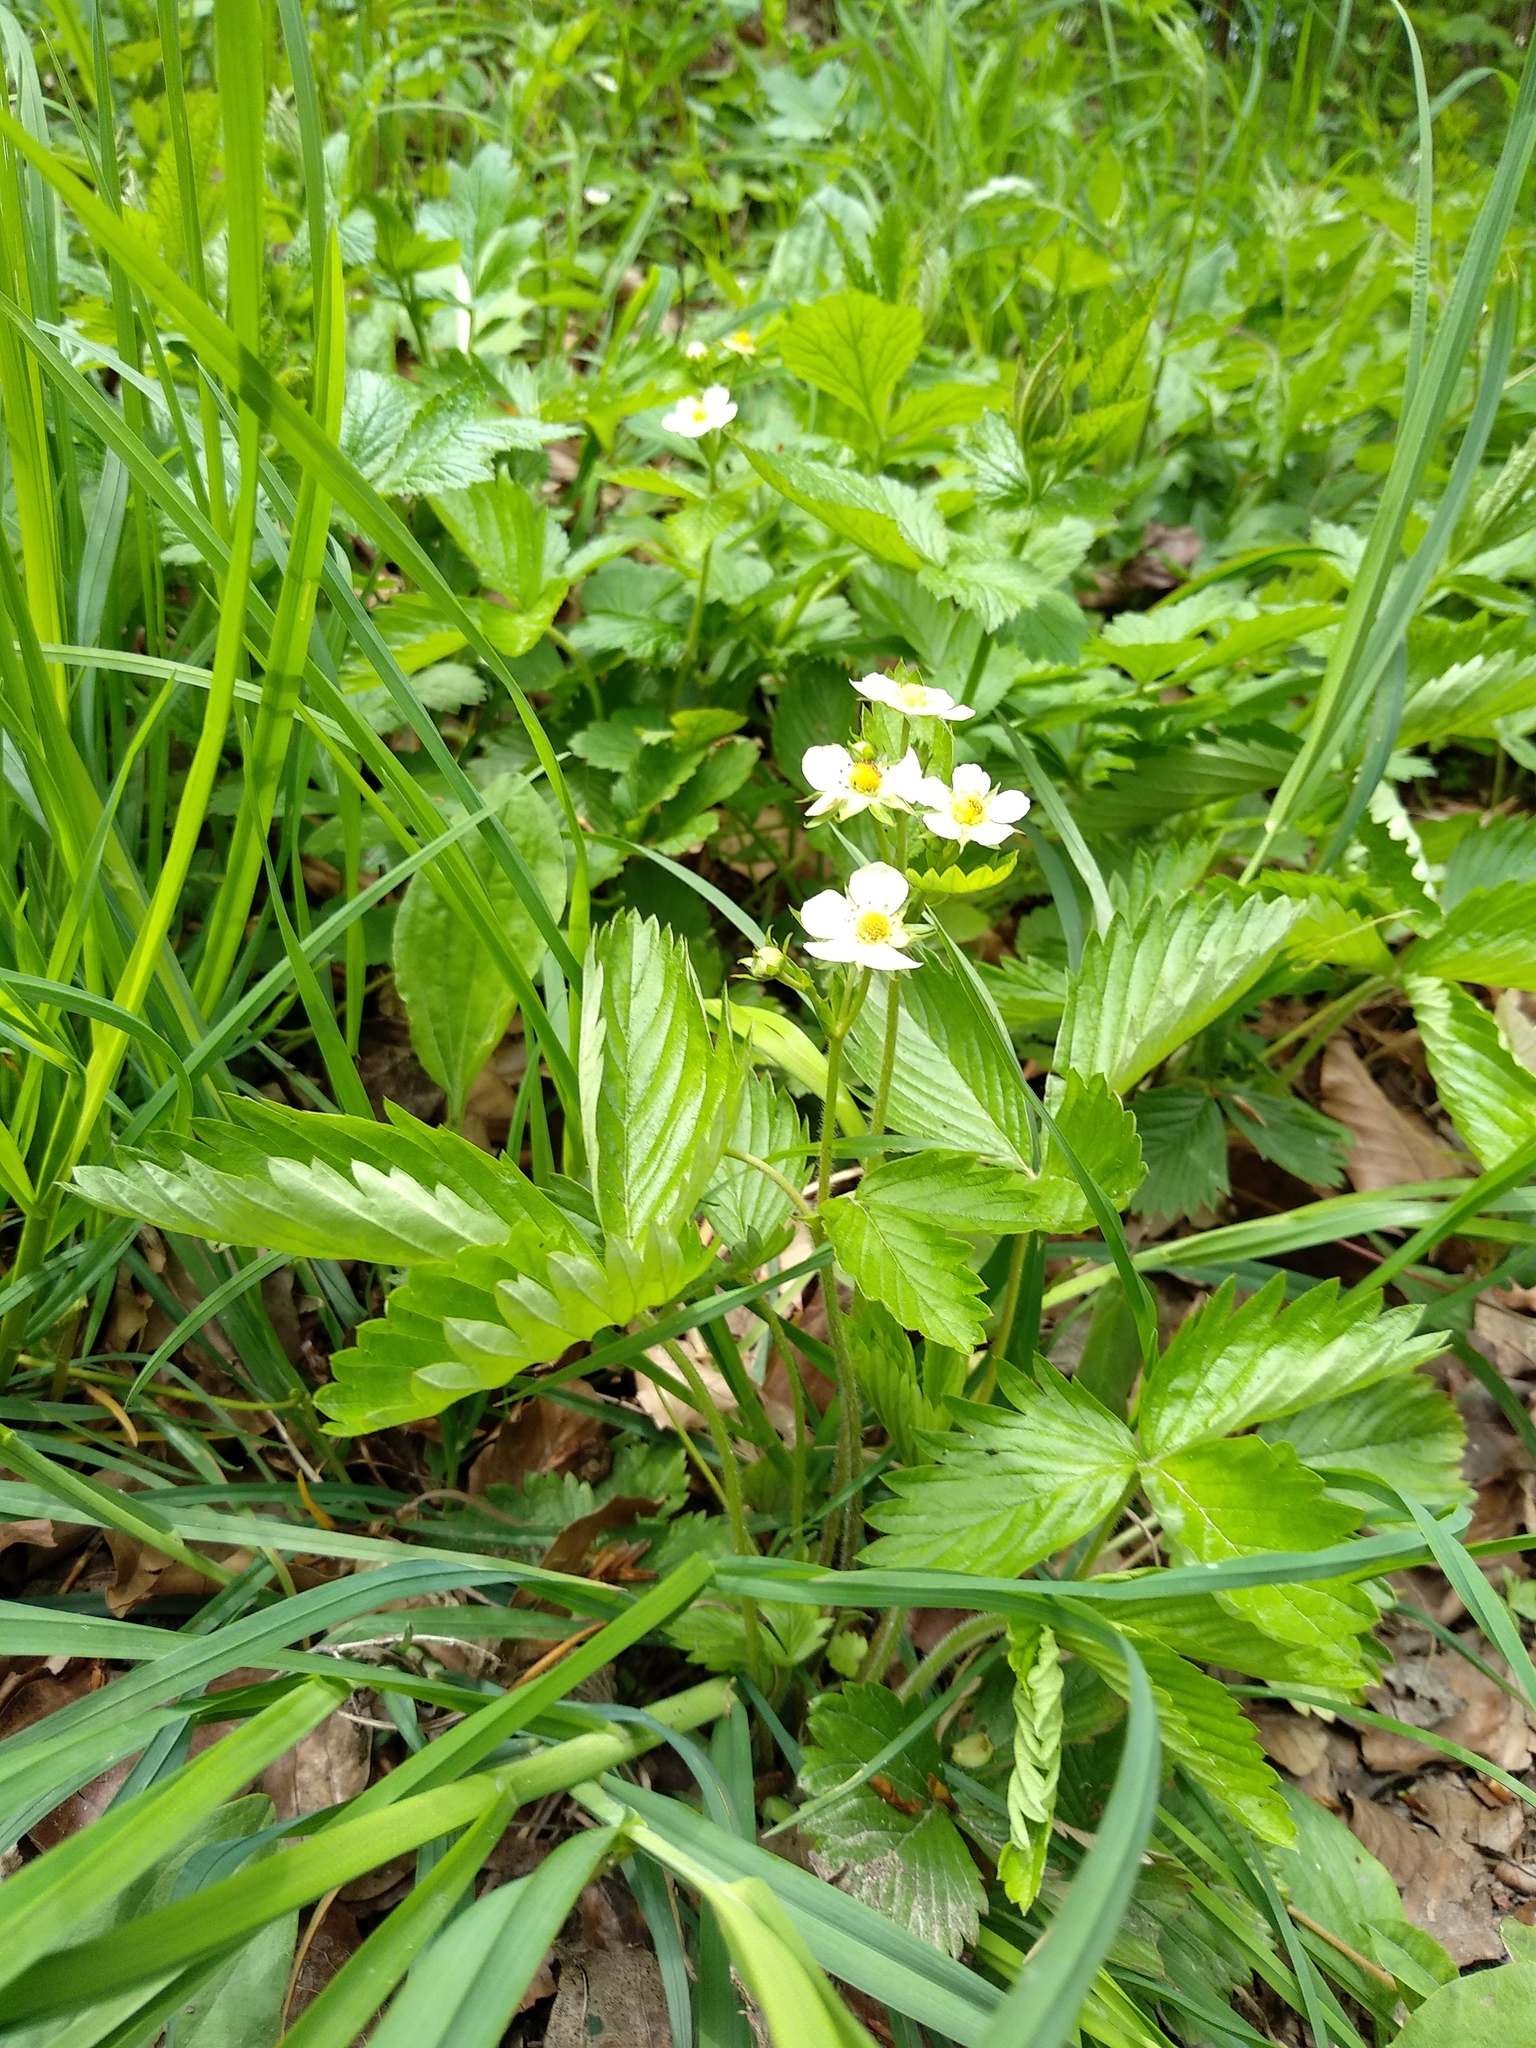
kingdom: Plantae
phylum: Tracheophyta
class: Magnoliopsida
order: Rosales
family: Rosaceae
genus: Fragaria
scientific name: Fragaria vesca
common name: Wild strawberry
